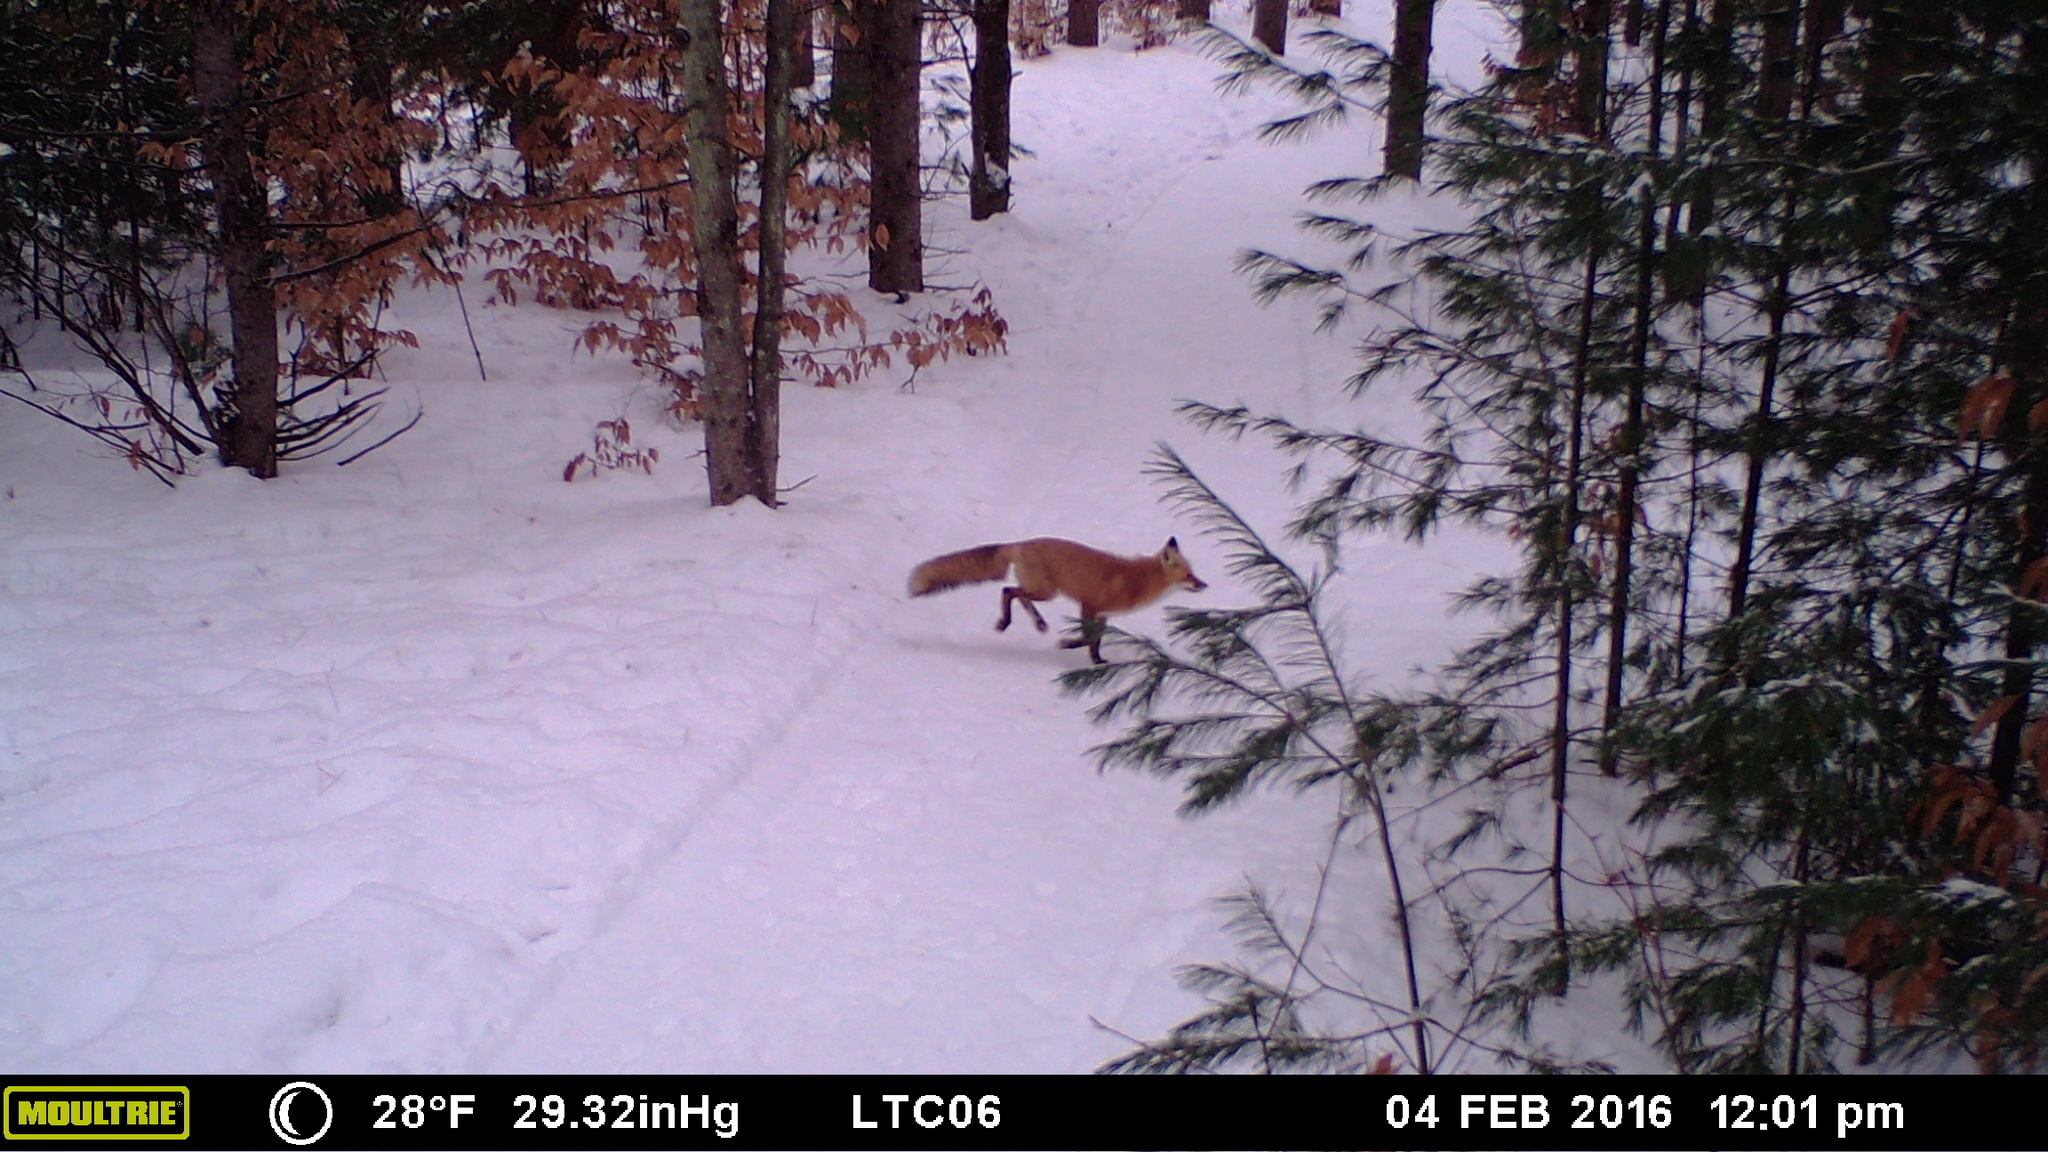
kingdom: Animalia
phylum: Chordata
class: Mammalia
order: Carnivora
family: Canidae
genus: Vulpes
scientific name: Vulpes vulpes
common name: Red fox
